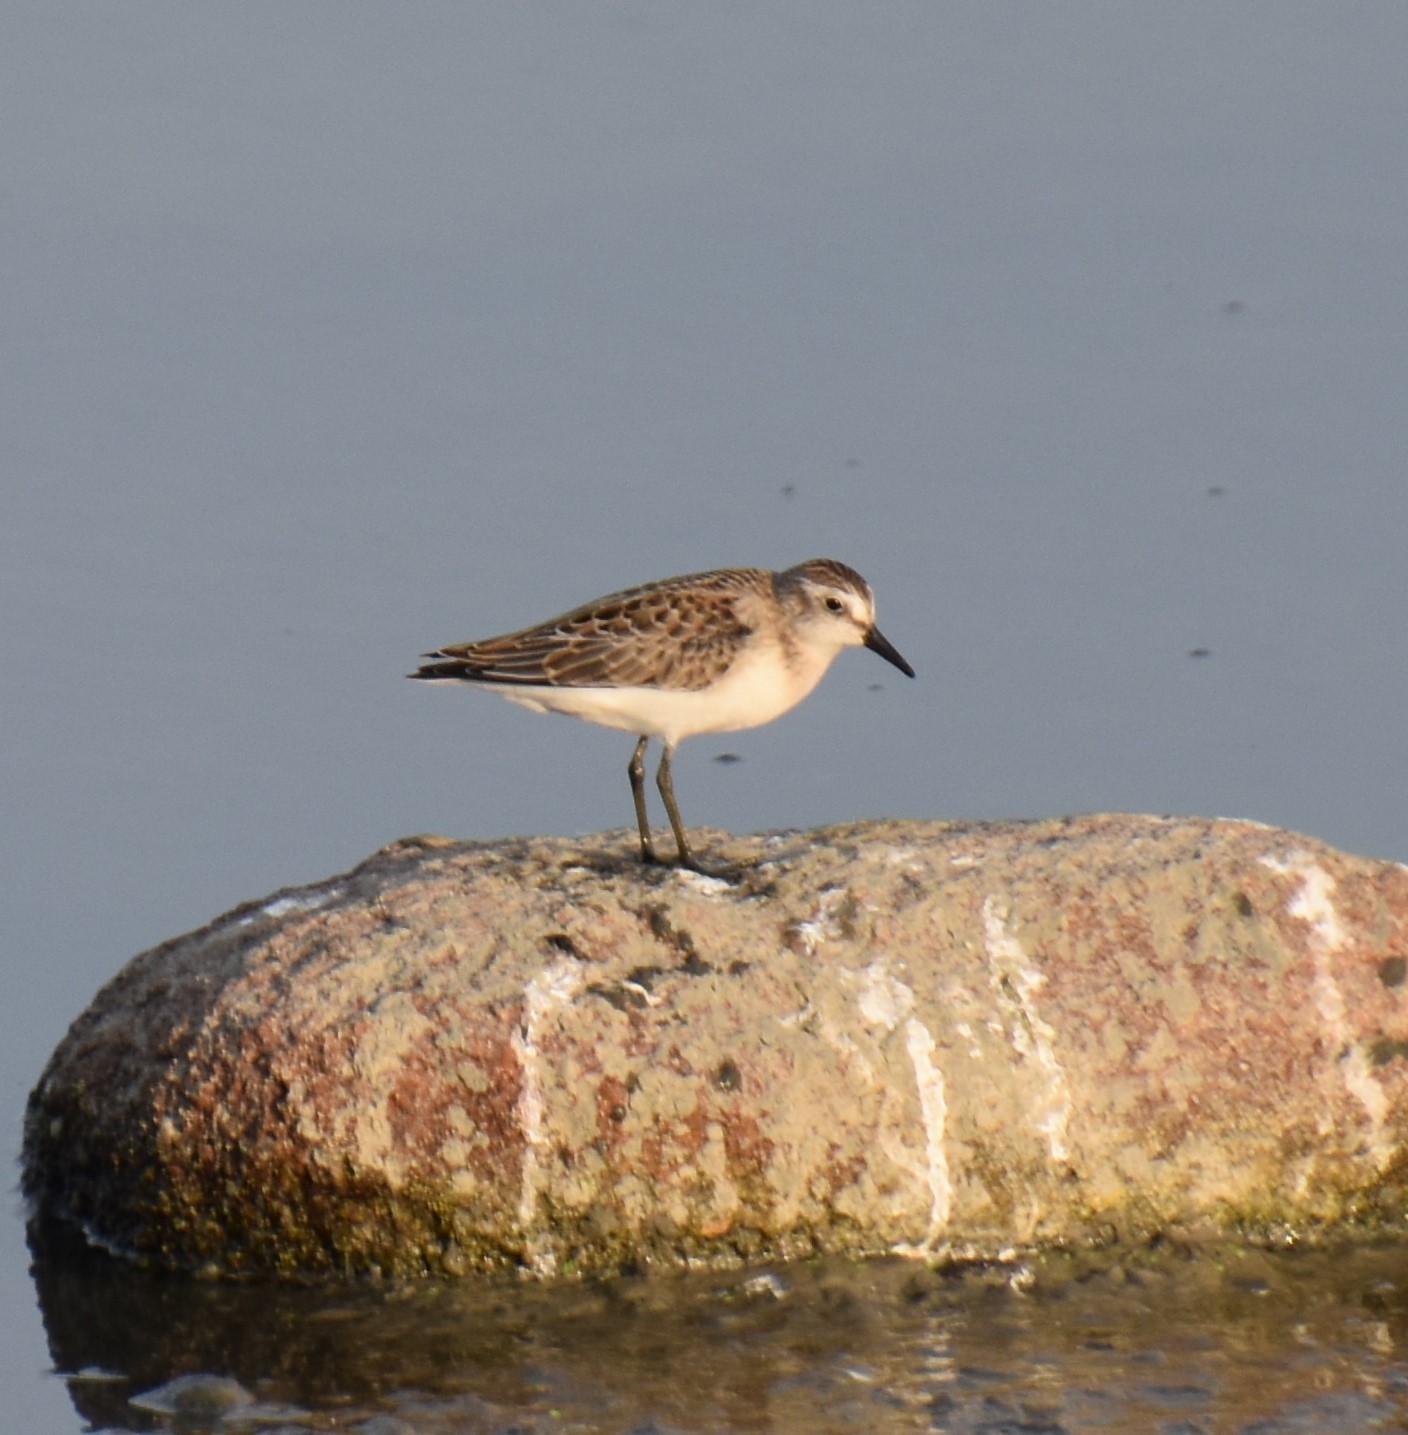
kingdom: Animalia
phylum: Chordata
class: Aves
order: Charadriiformes
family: Scolopacidae
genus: Calidris
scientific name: Calidris pusilla
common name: Semipalmated sandpiper
